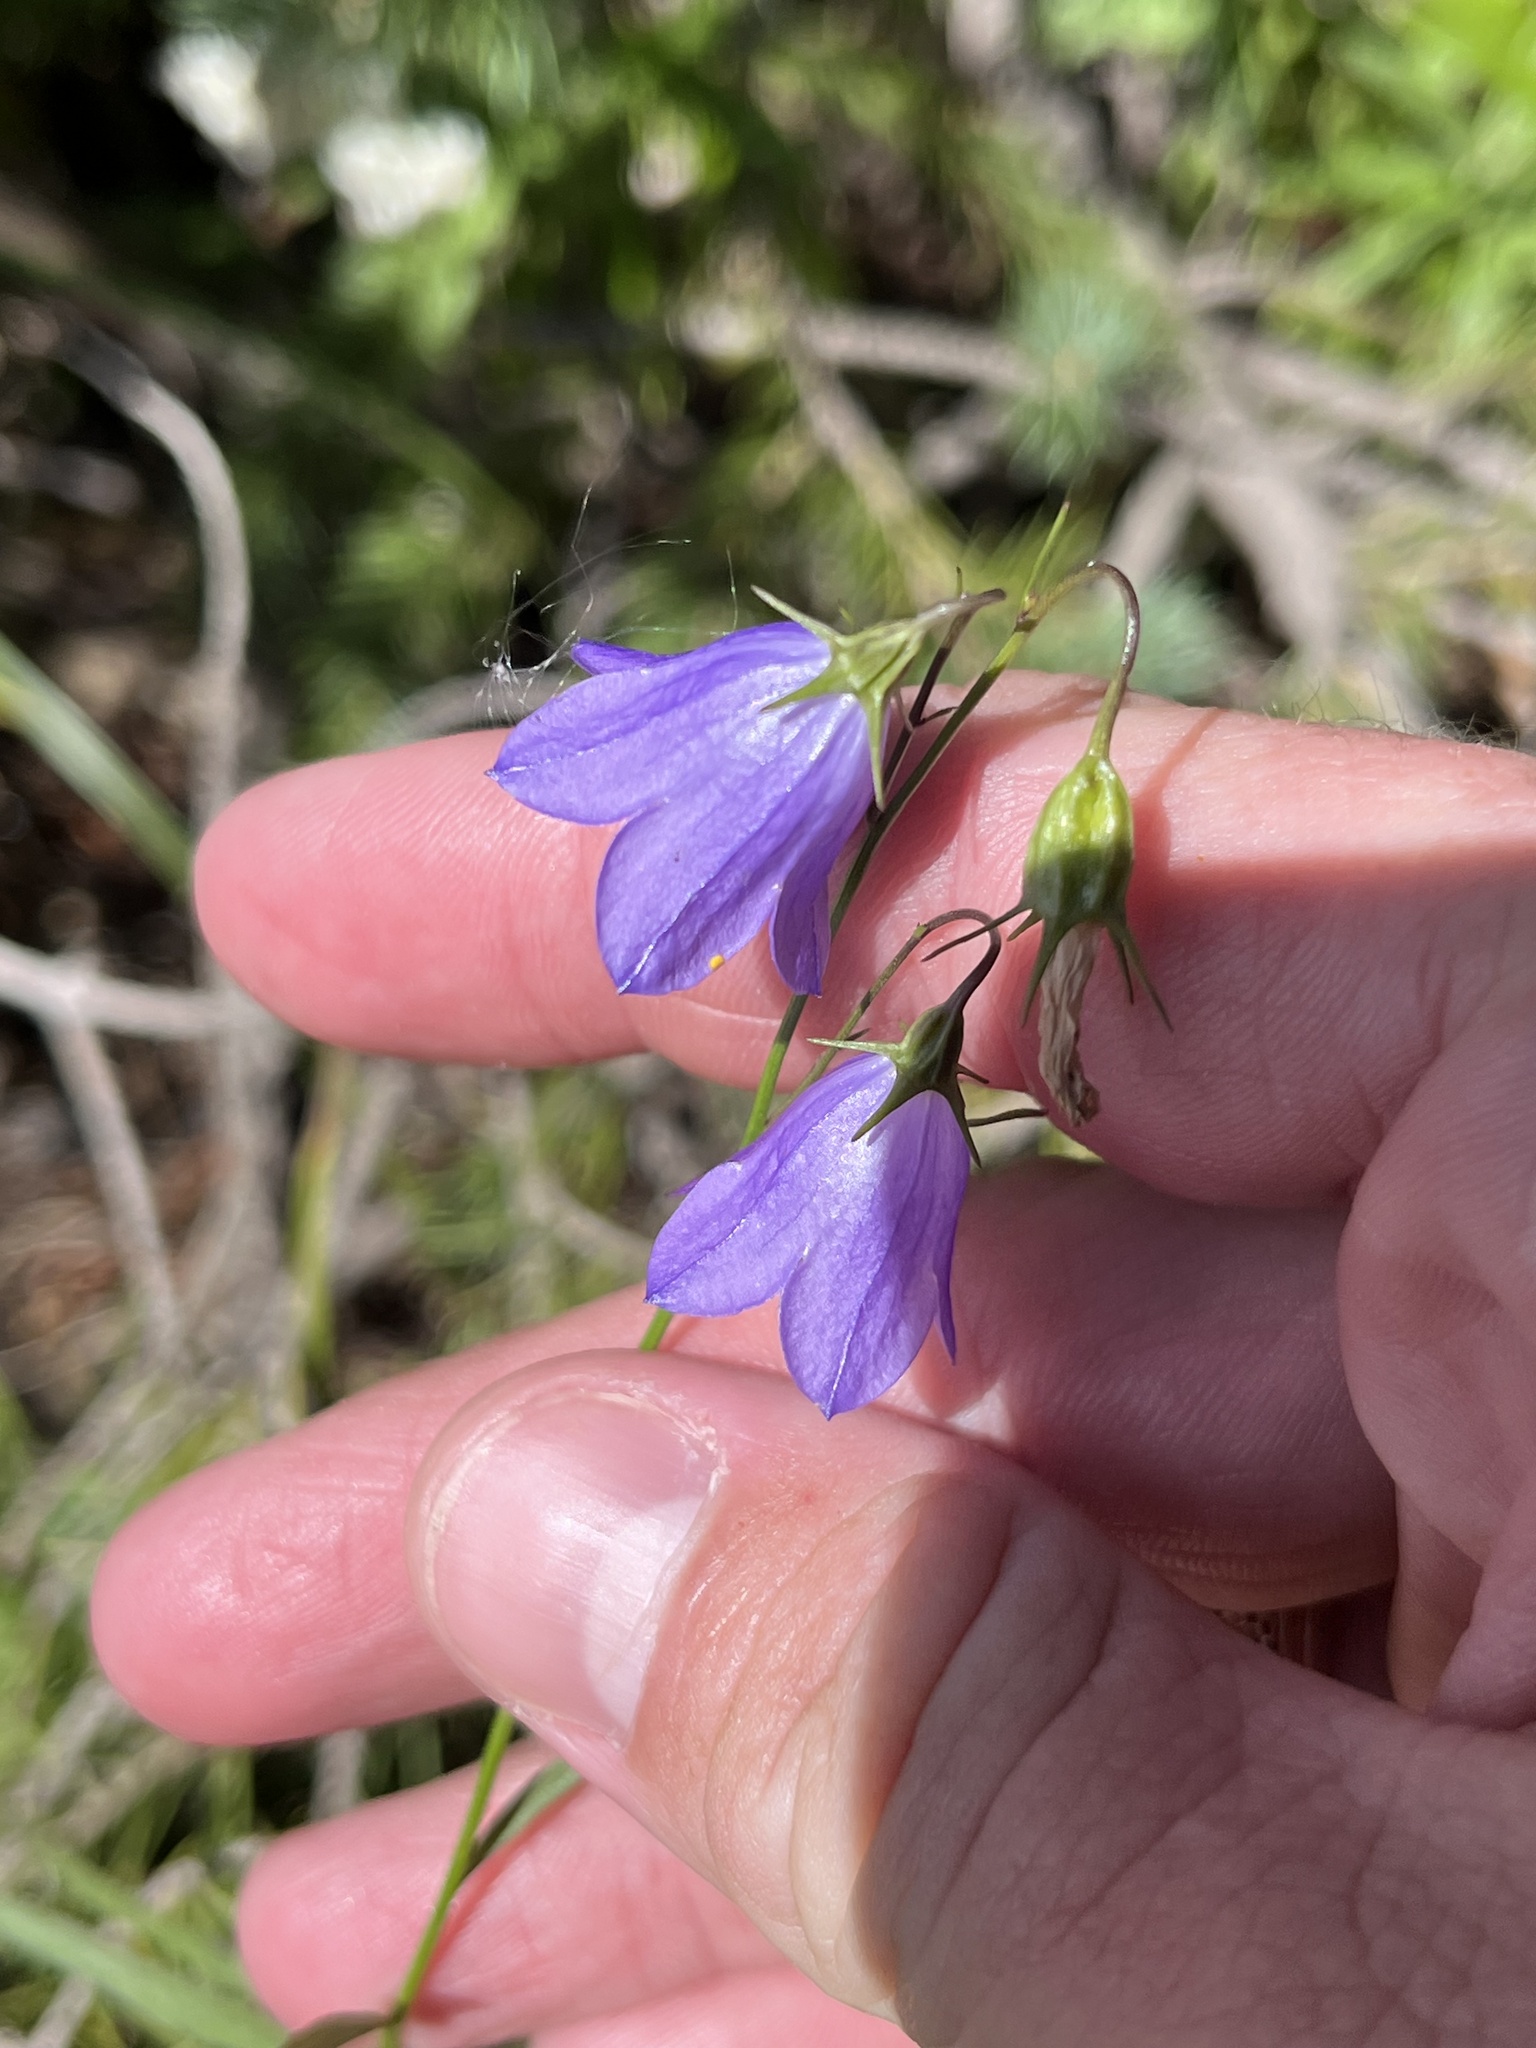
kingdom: Plantae
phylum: Tracheophyta
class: Magnoliopsida
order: Asterales
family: Campanulaceae
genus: Campanula
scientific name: Campanula petiolata
